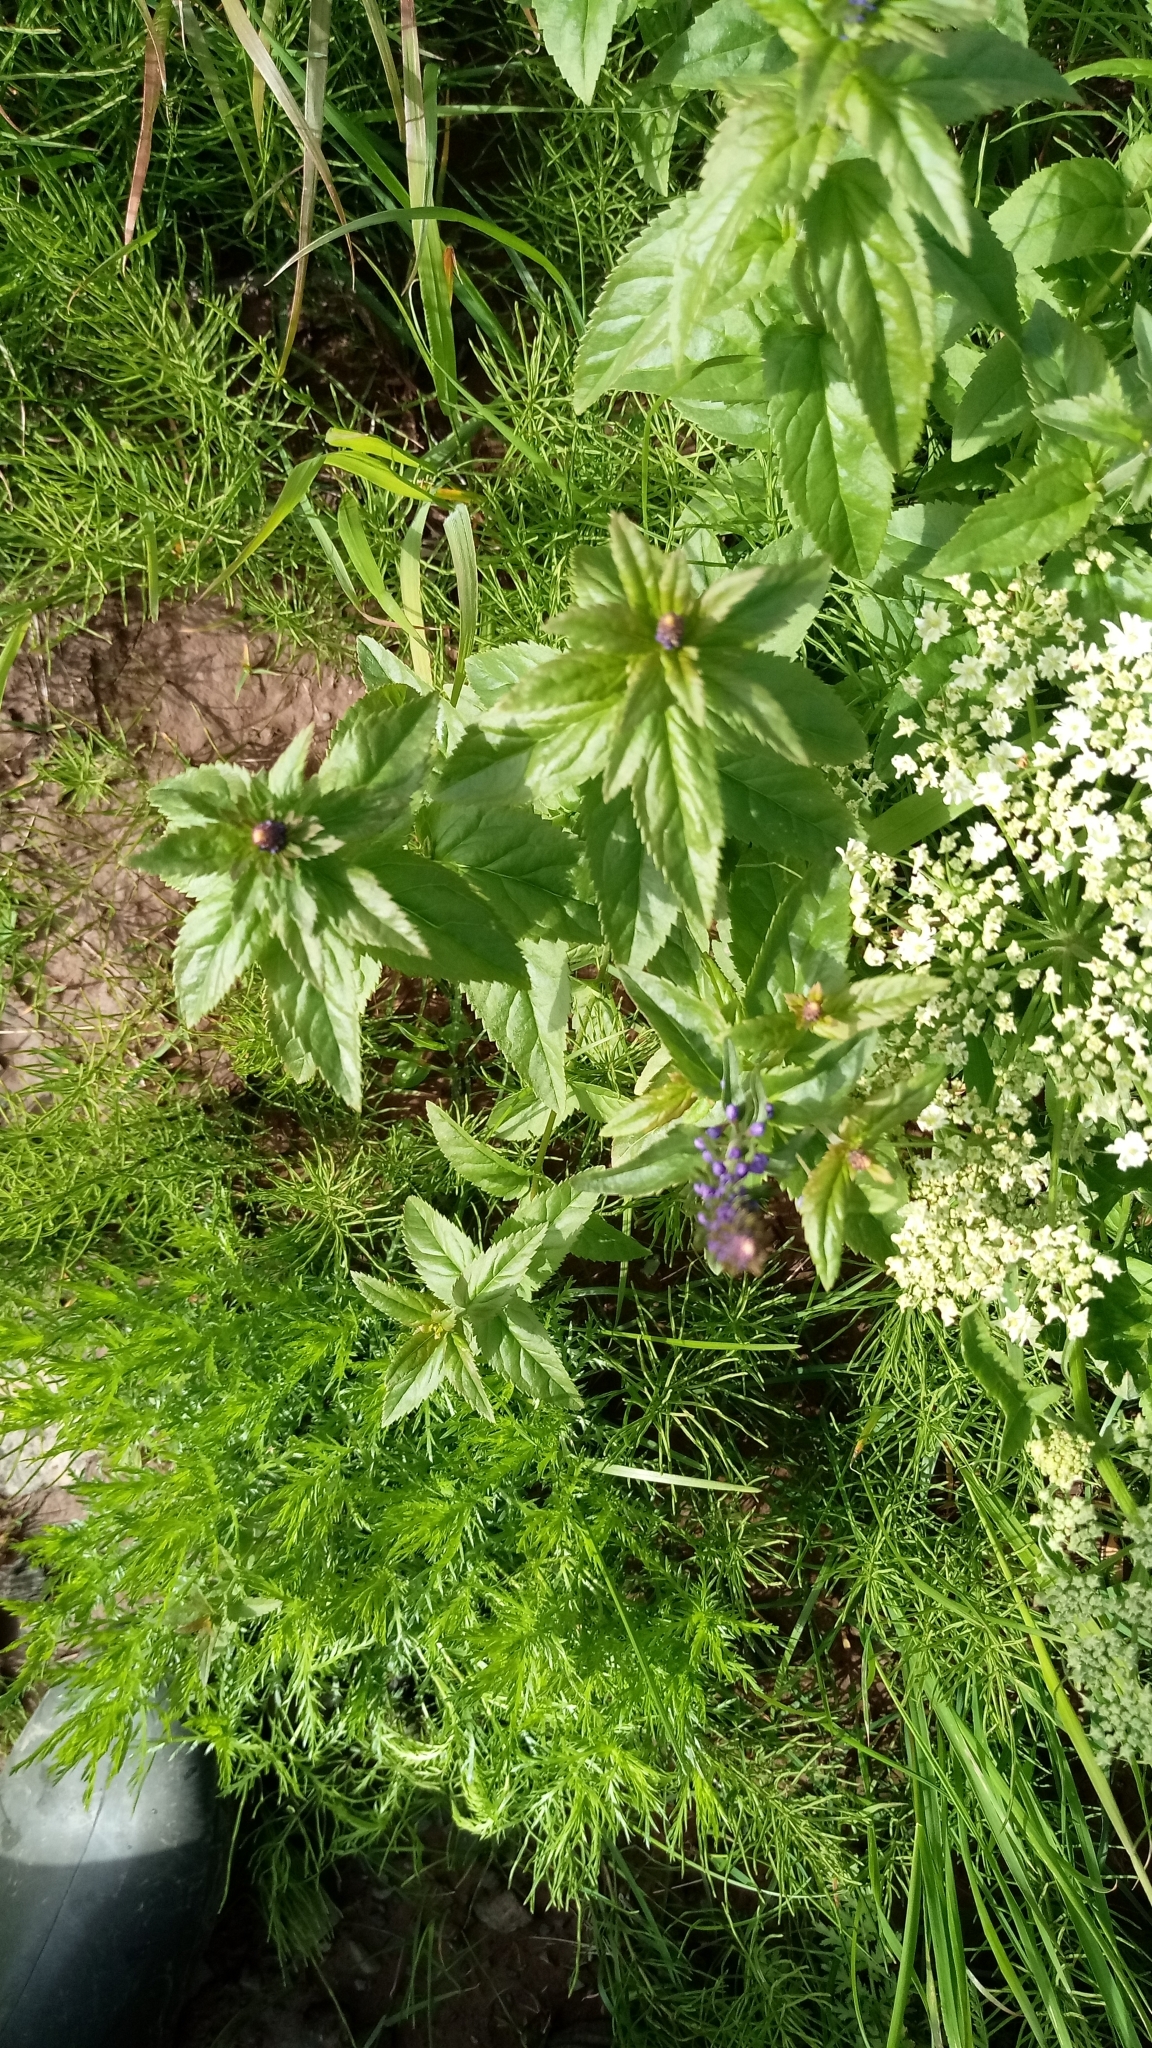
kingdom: Plantae
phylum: Tracheophyta
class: Magnoliopsida
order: Lamiales
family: Plantaginaceae
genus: Veronica
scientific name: Veronica longifolia
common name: Garden speedwell
